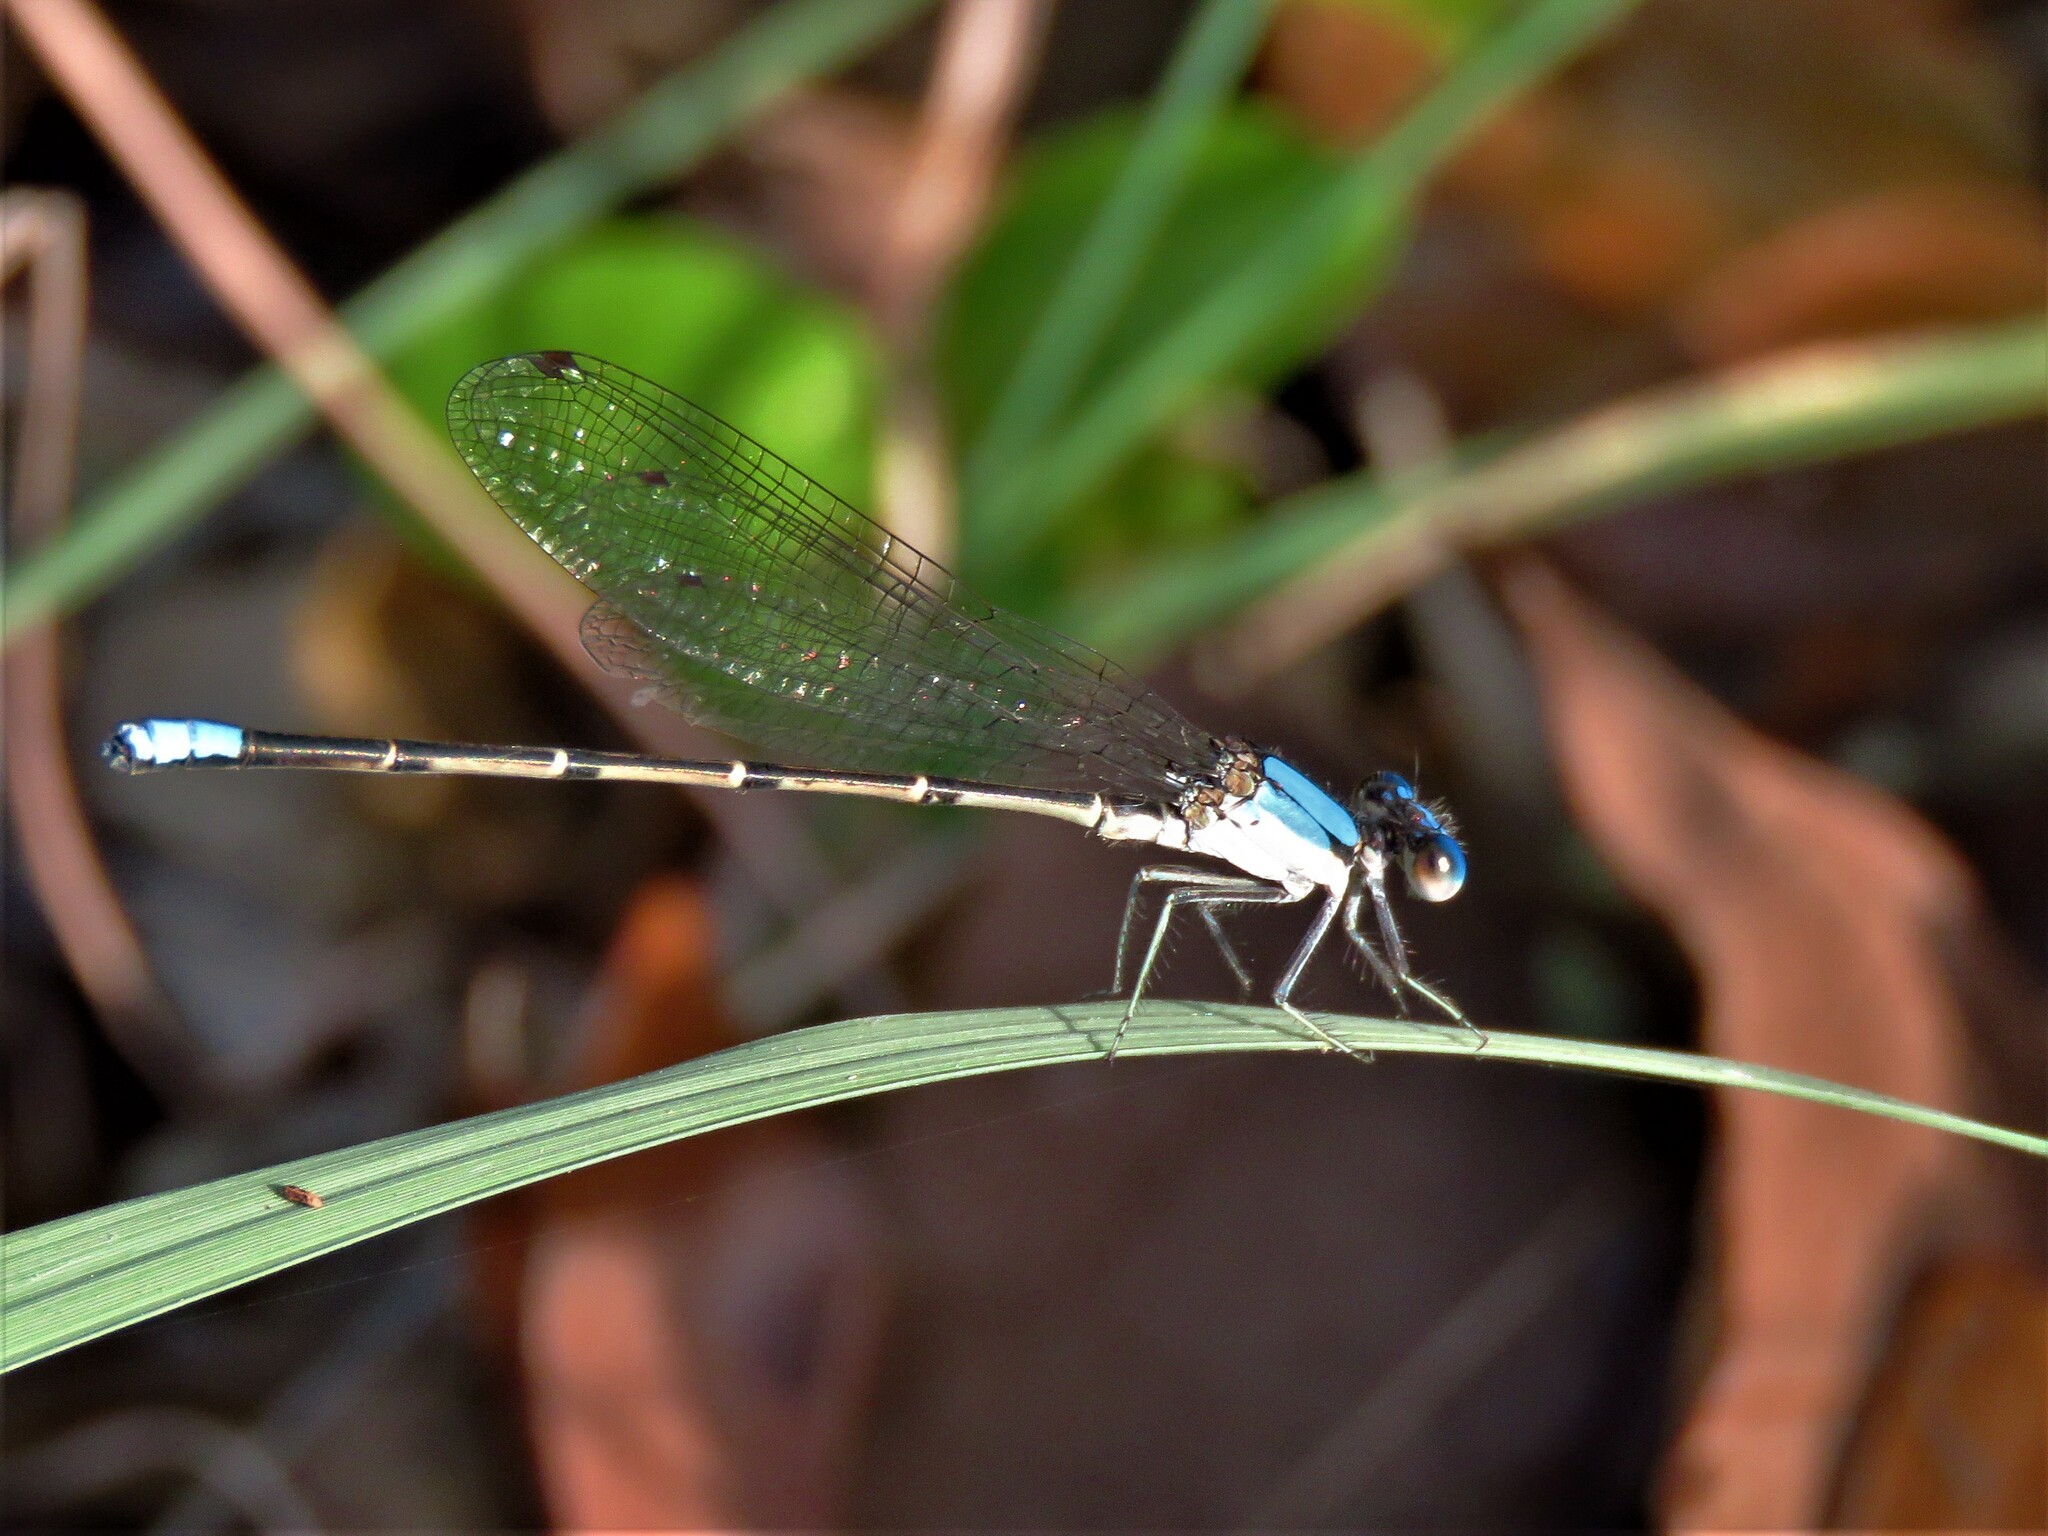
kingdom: Animalia
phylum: Arthropoda
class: Insecta
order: Odonata
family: Coenagrionidae
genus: Argia
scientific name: Argia apicalis
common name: Blue-fronted dancer
